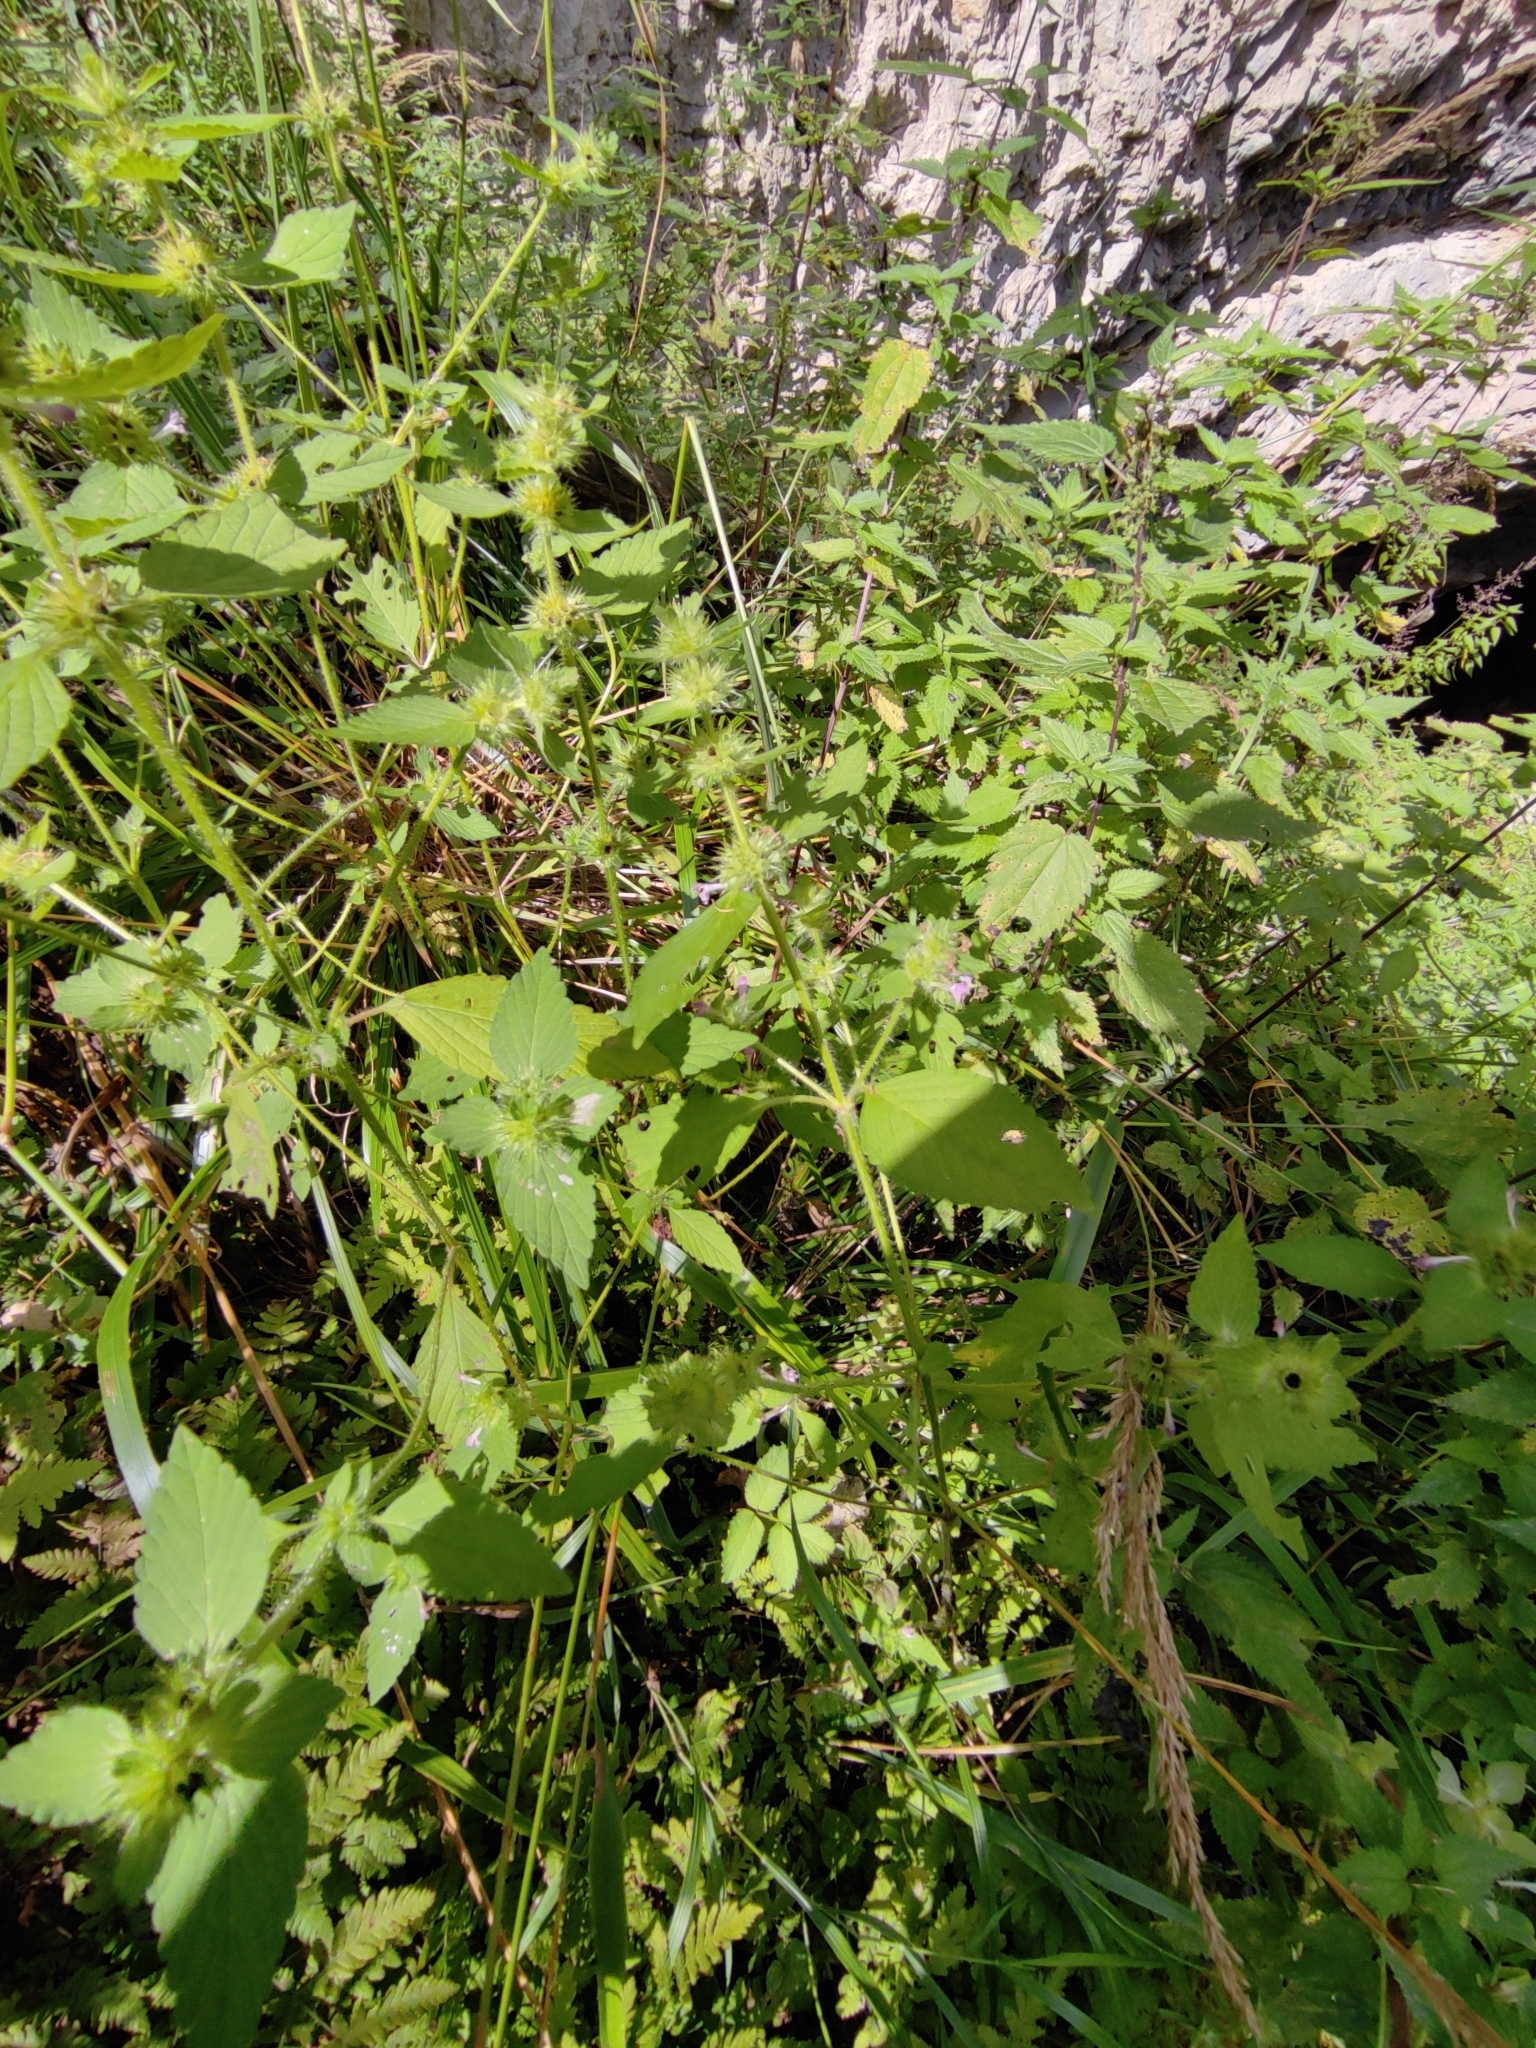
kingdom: Plantae
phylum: Tracheophyta
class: Magnoliopsida
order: Lamiales
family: Lamiaceae
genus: Galeopsis
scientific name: Galeopsis bifida
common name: Bifid hemp-nettle
